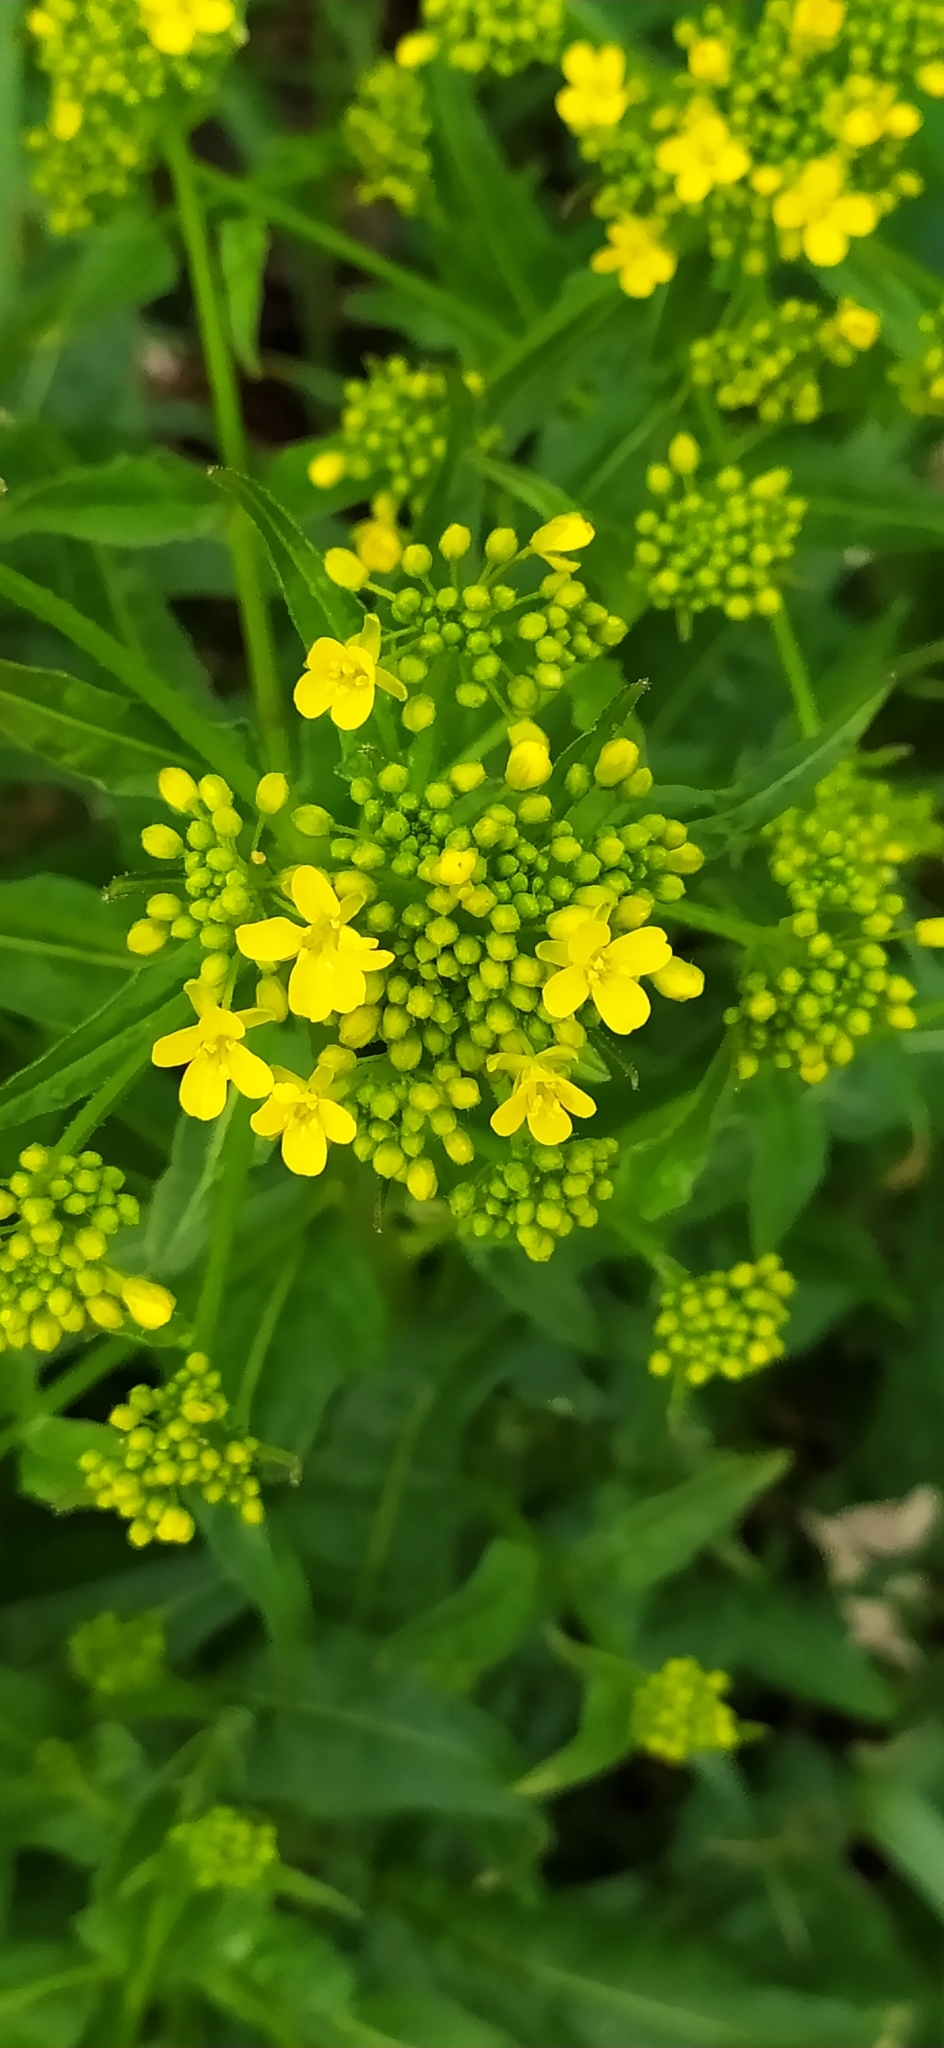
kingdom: Plantae
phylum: Tracheophyta
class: Magnoliopsida
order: Brassicales
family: Brassicaceae
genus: Bunias
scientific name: Bunias orientalis
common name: Warty-cabbage
